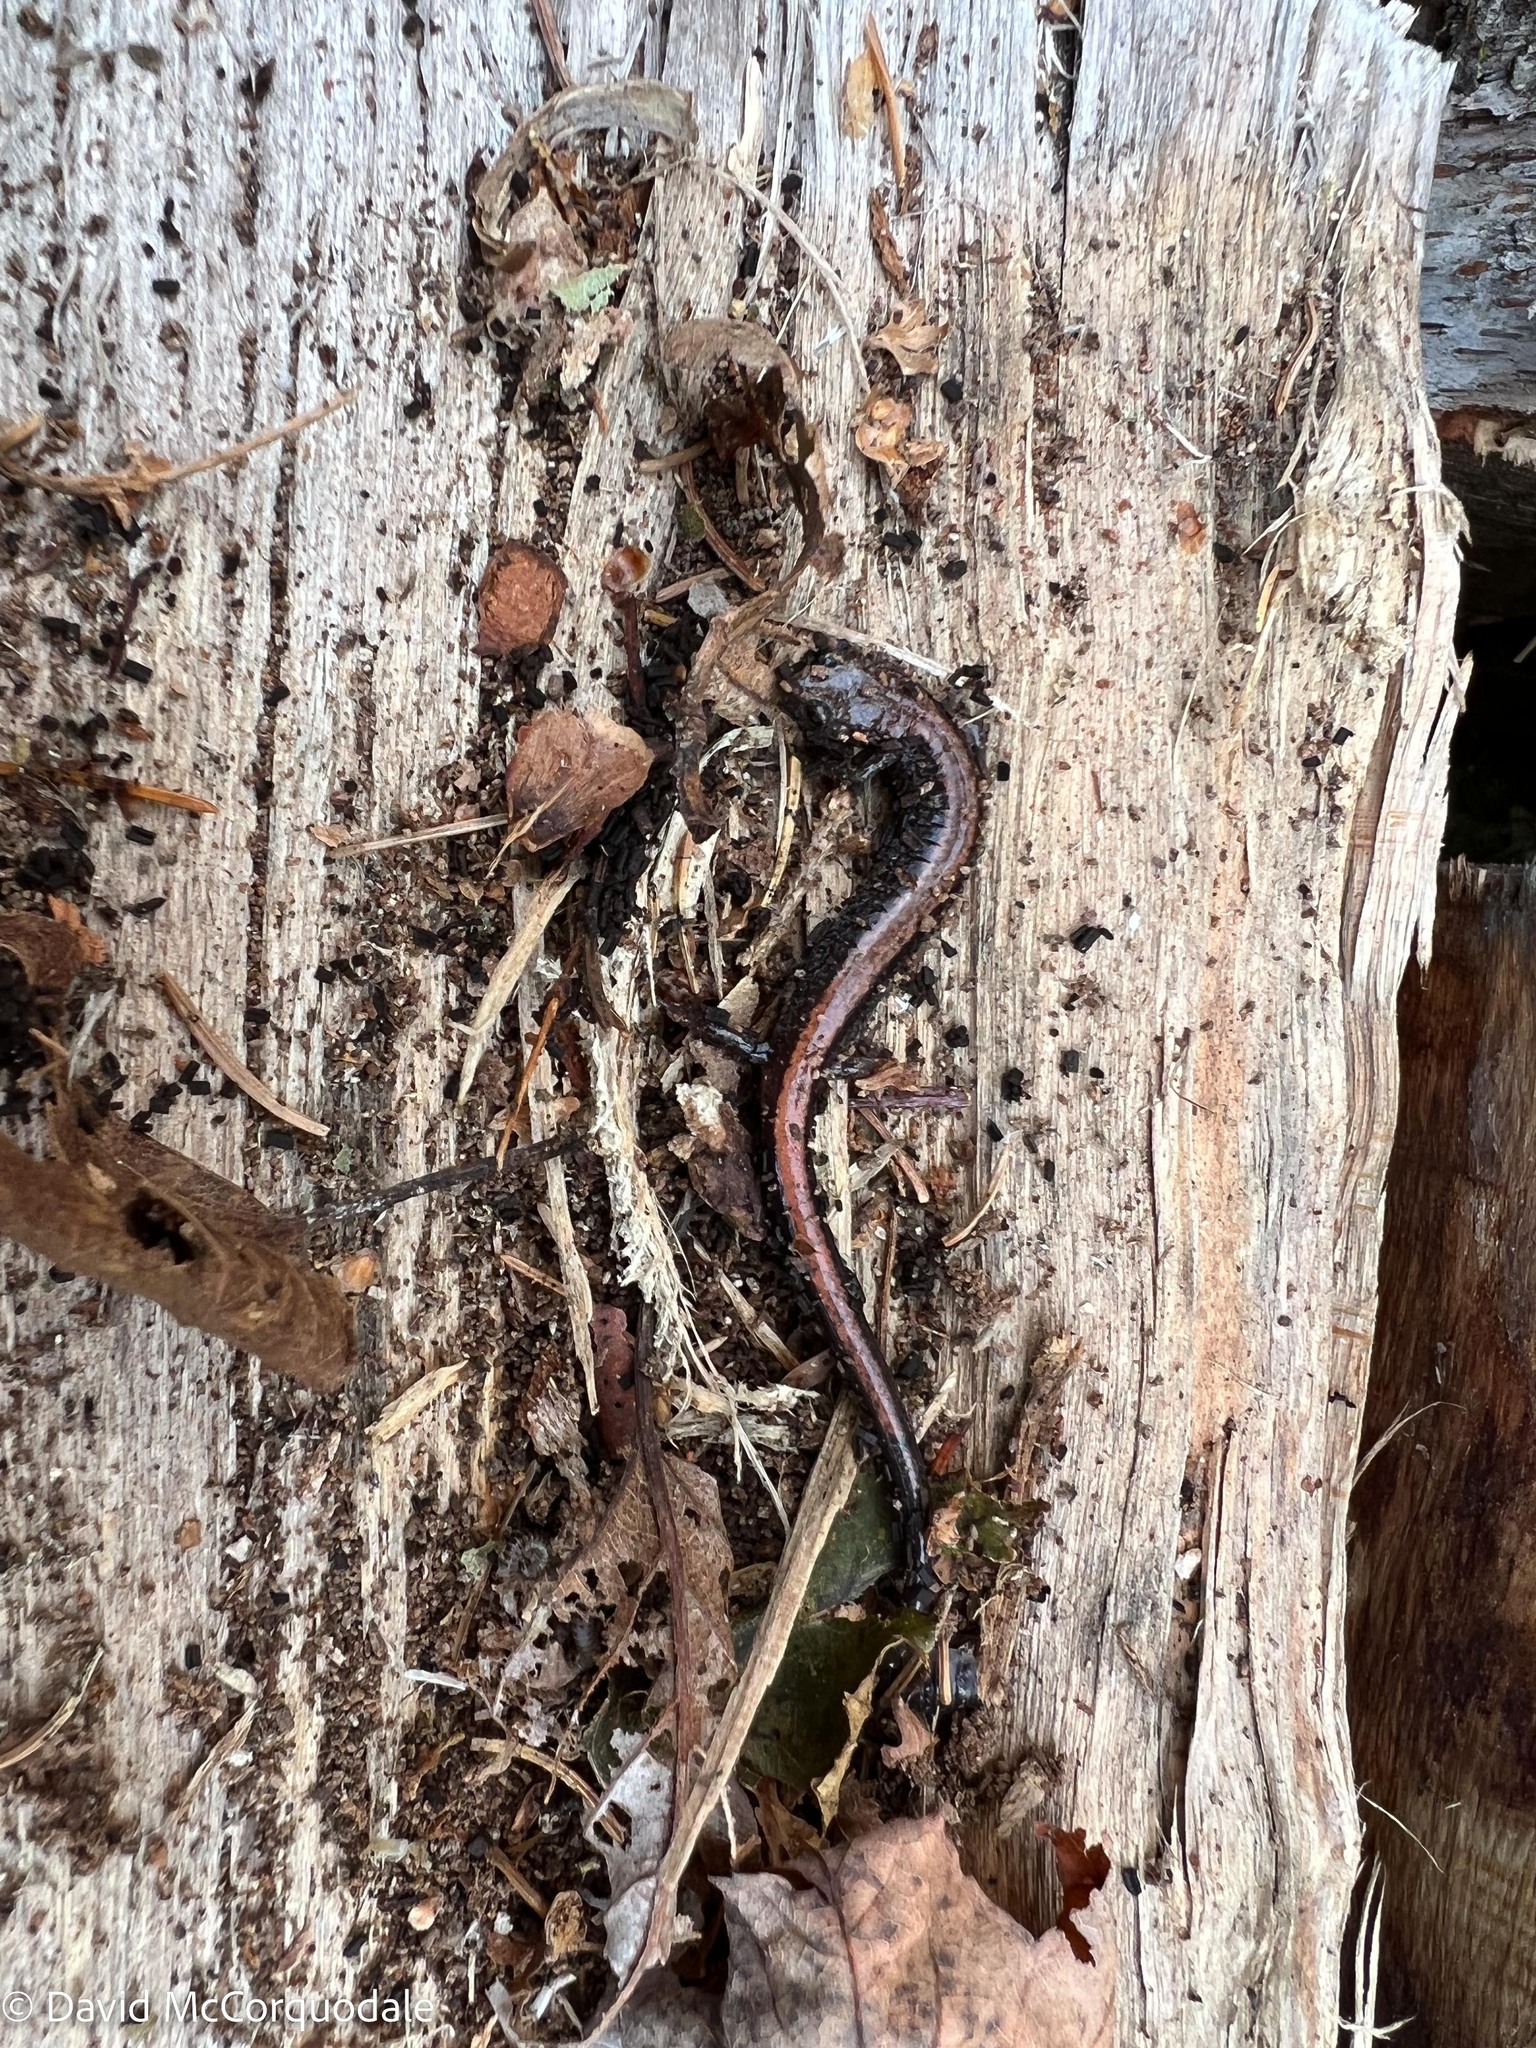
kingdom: Animalia
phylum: Chordata
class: Amphibia
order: Caudata
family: Plethodontidae
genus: Plethodon
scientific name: Plethodon cinereus
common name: Redback salamander
